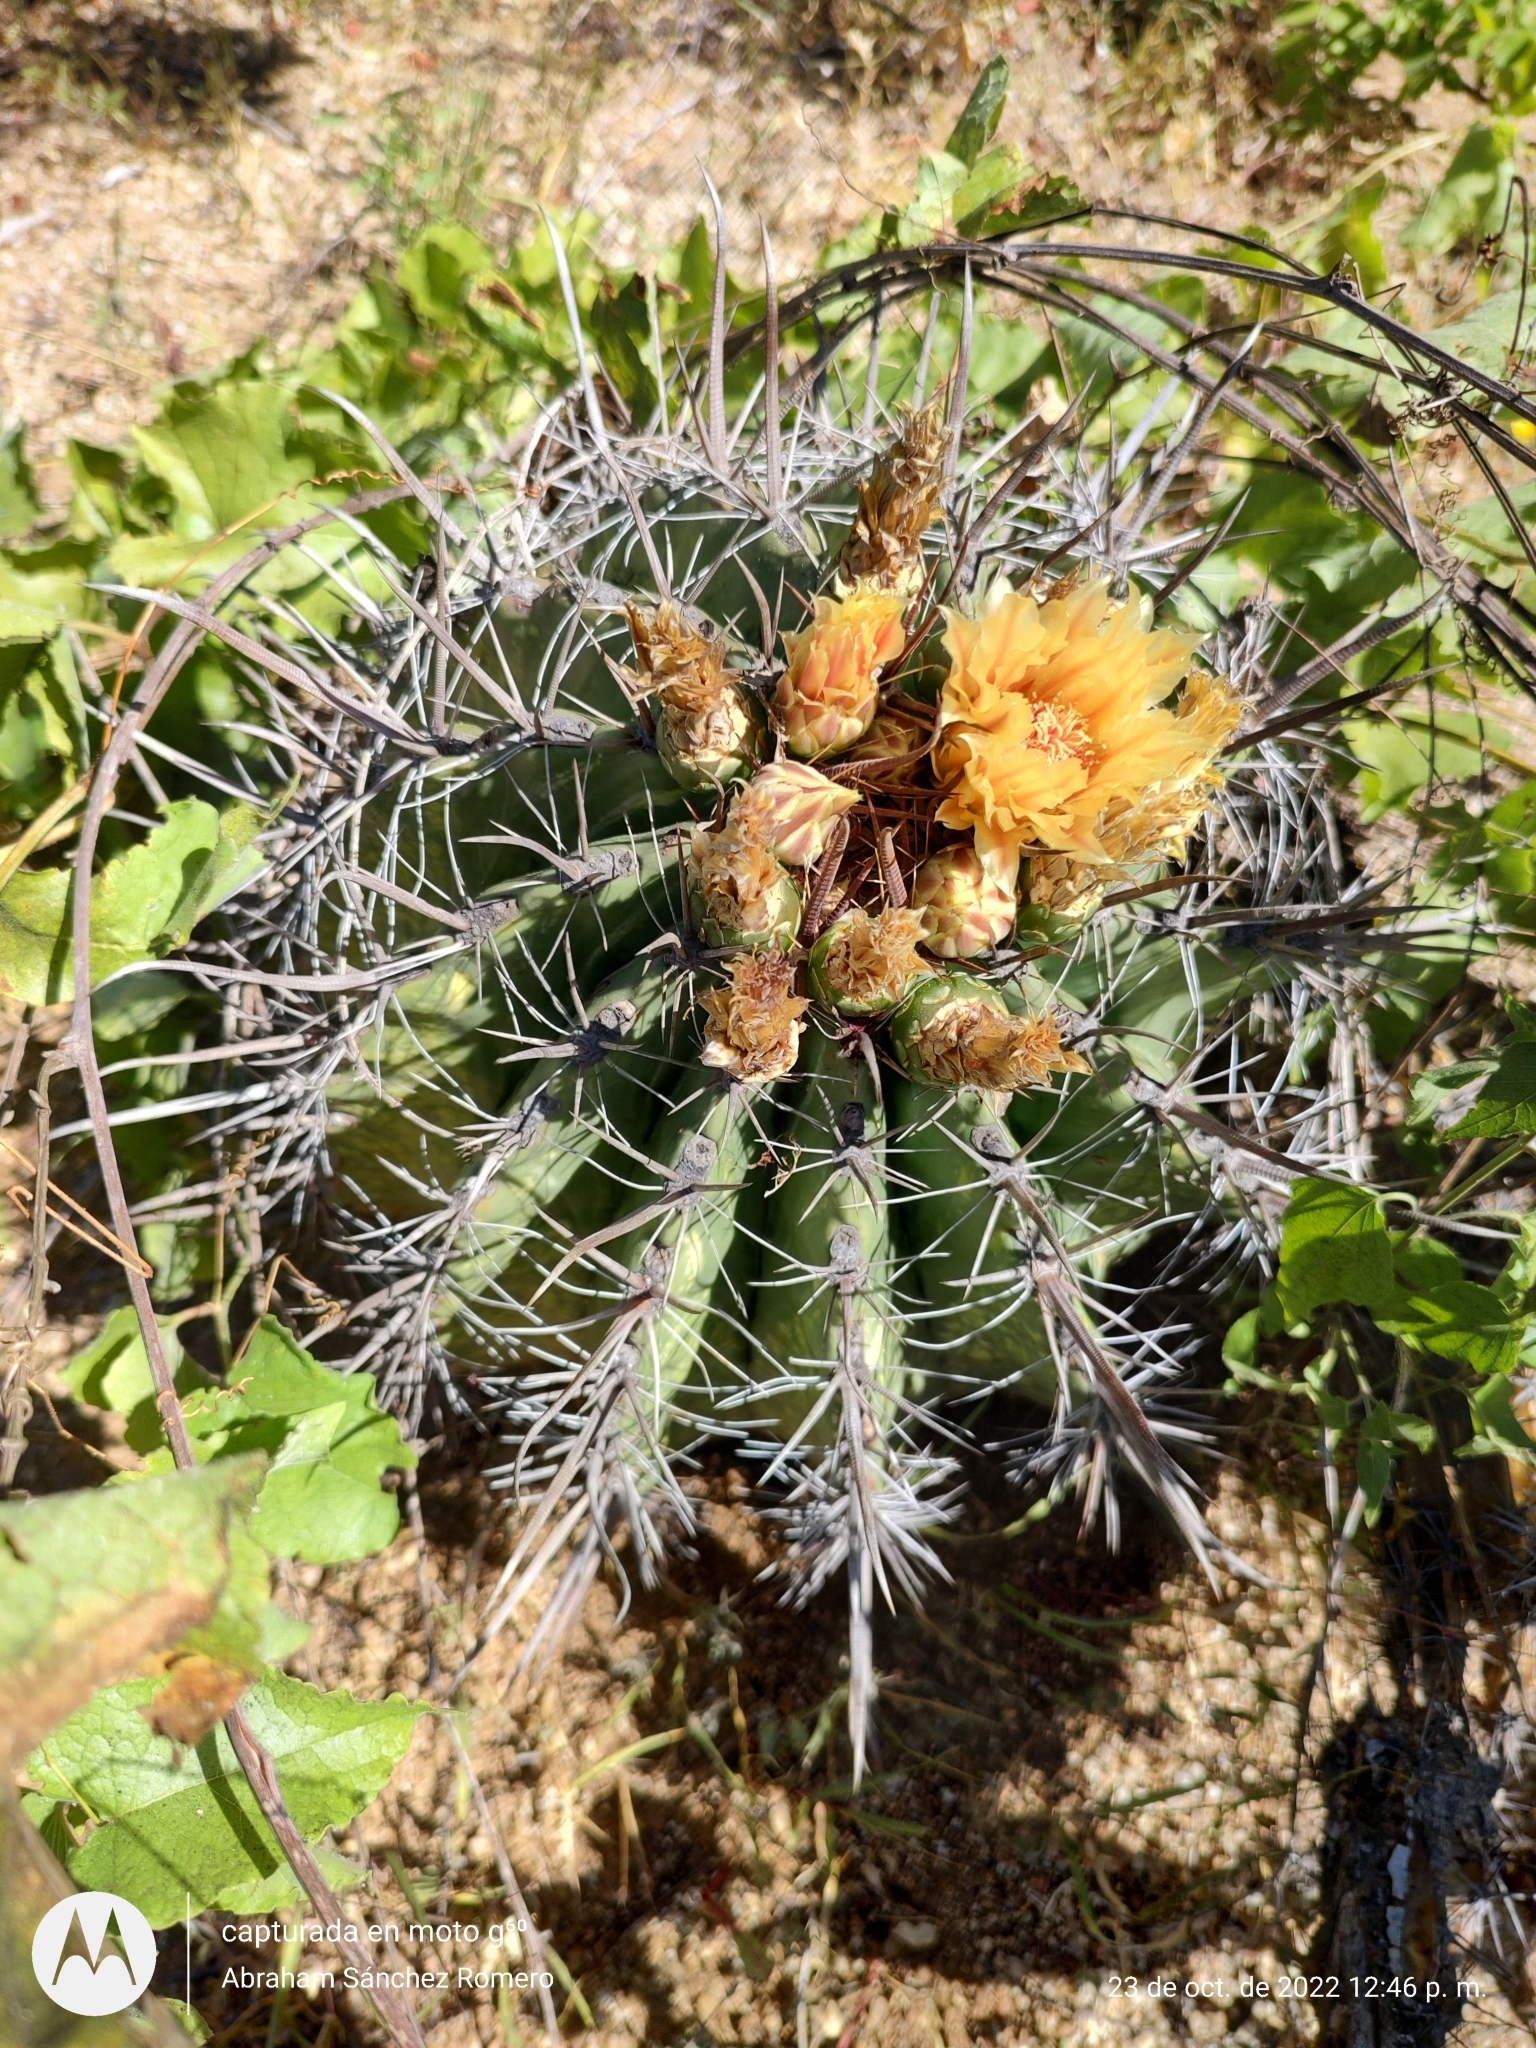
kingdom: Plantae
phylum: Tracheophyta
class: Magnoliopsida
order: Caryophyllales
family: Cactaceae
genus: Ferocactus
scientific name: Ferocactus townsendianus
